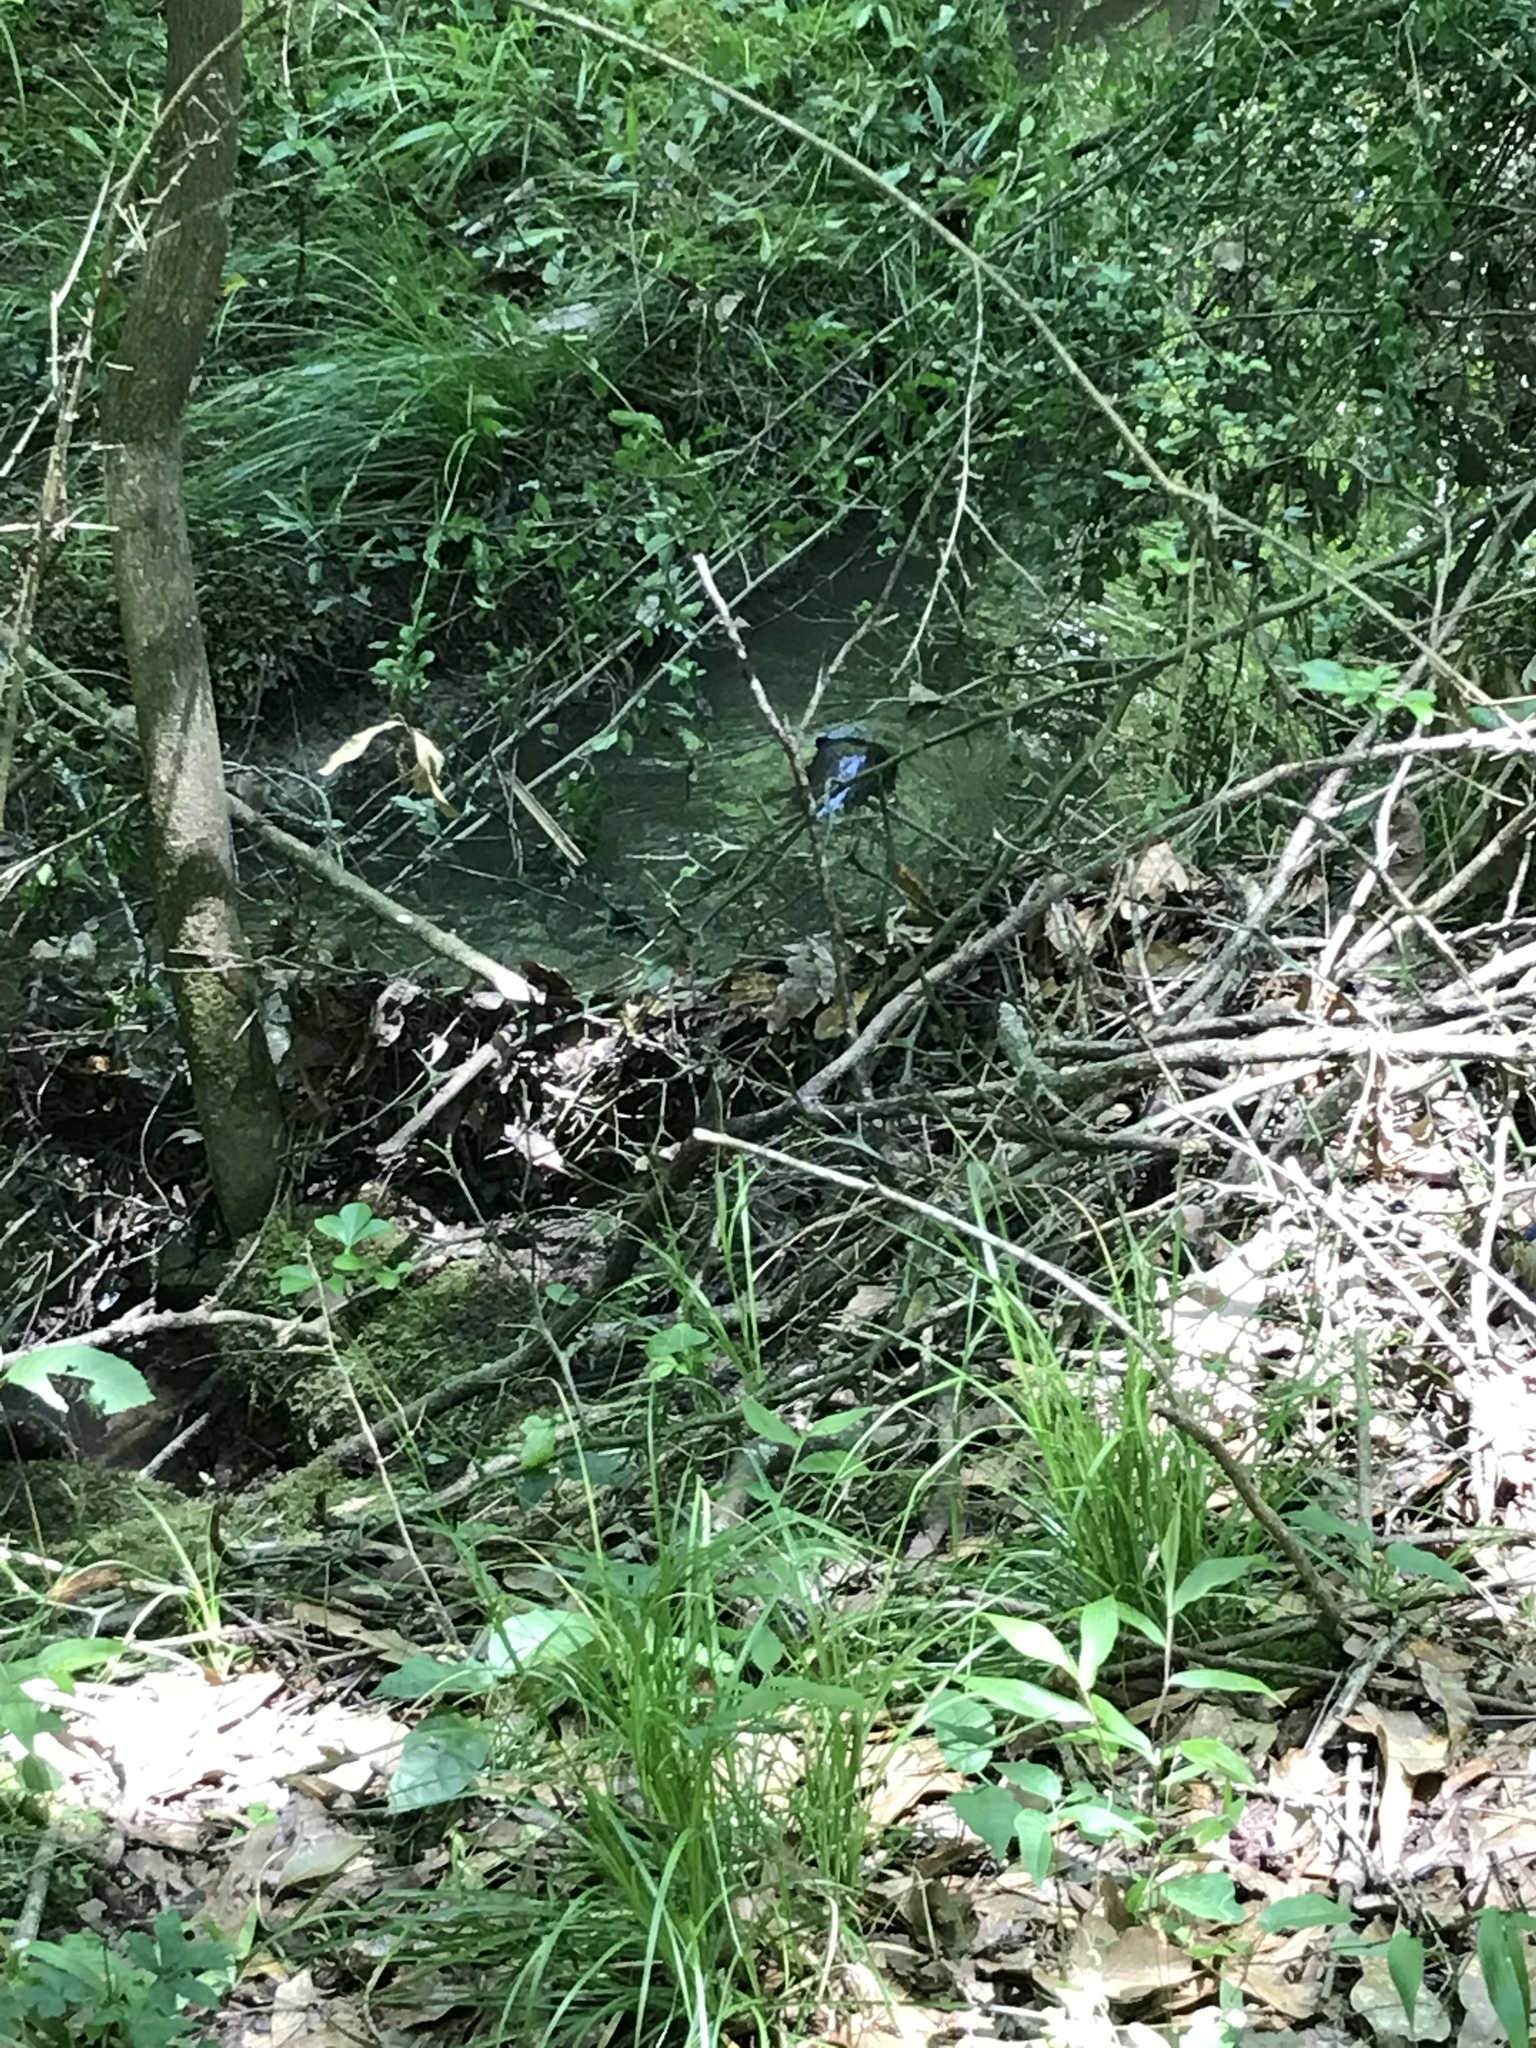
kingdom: Animalia
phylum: Chordata
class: Mammalia
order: Carnivora
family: Mustelidae
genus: Lontra
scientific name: Lontra canadensis
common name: North american river otter
